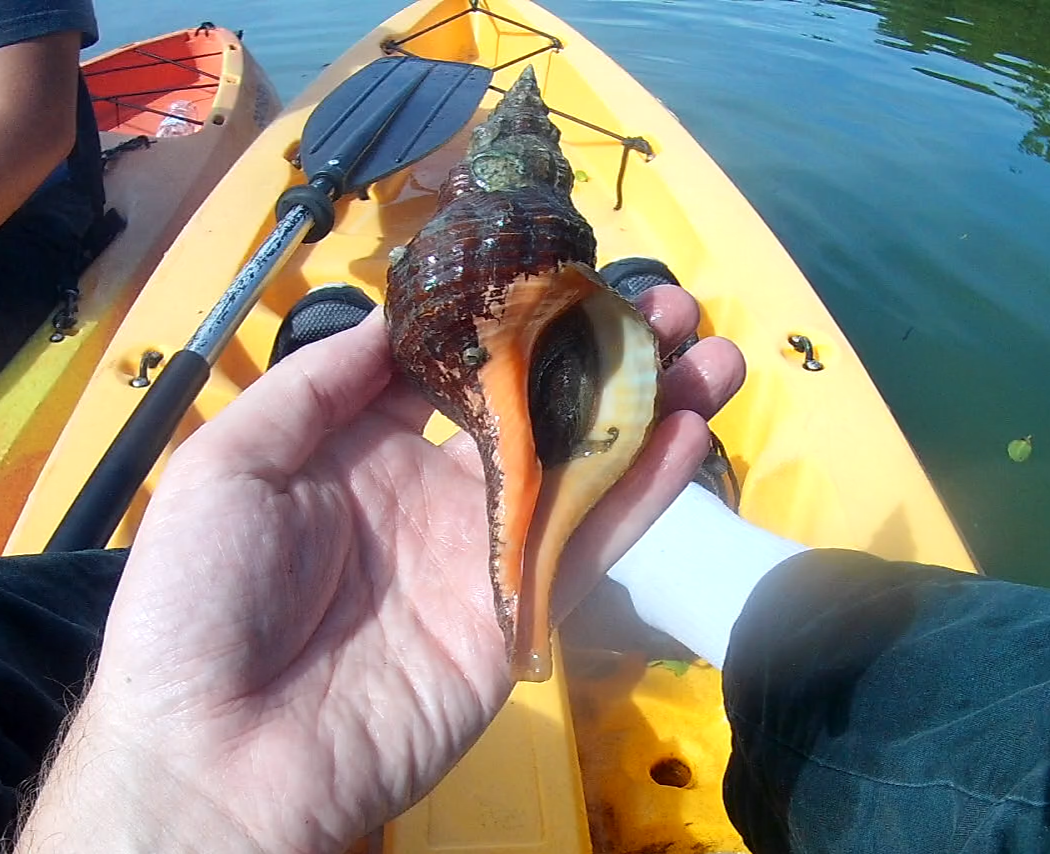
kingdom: Animalia
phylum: Mollusca
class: Gastropoda
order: Neogastropoda
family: Fasciolariidae
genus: Triplofusus
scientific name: Triplofusus giganteus
